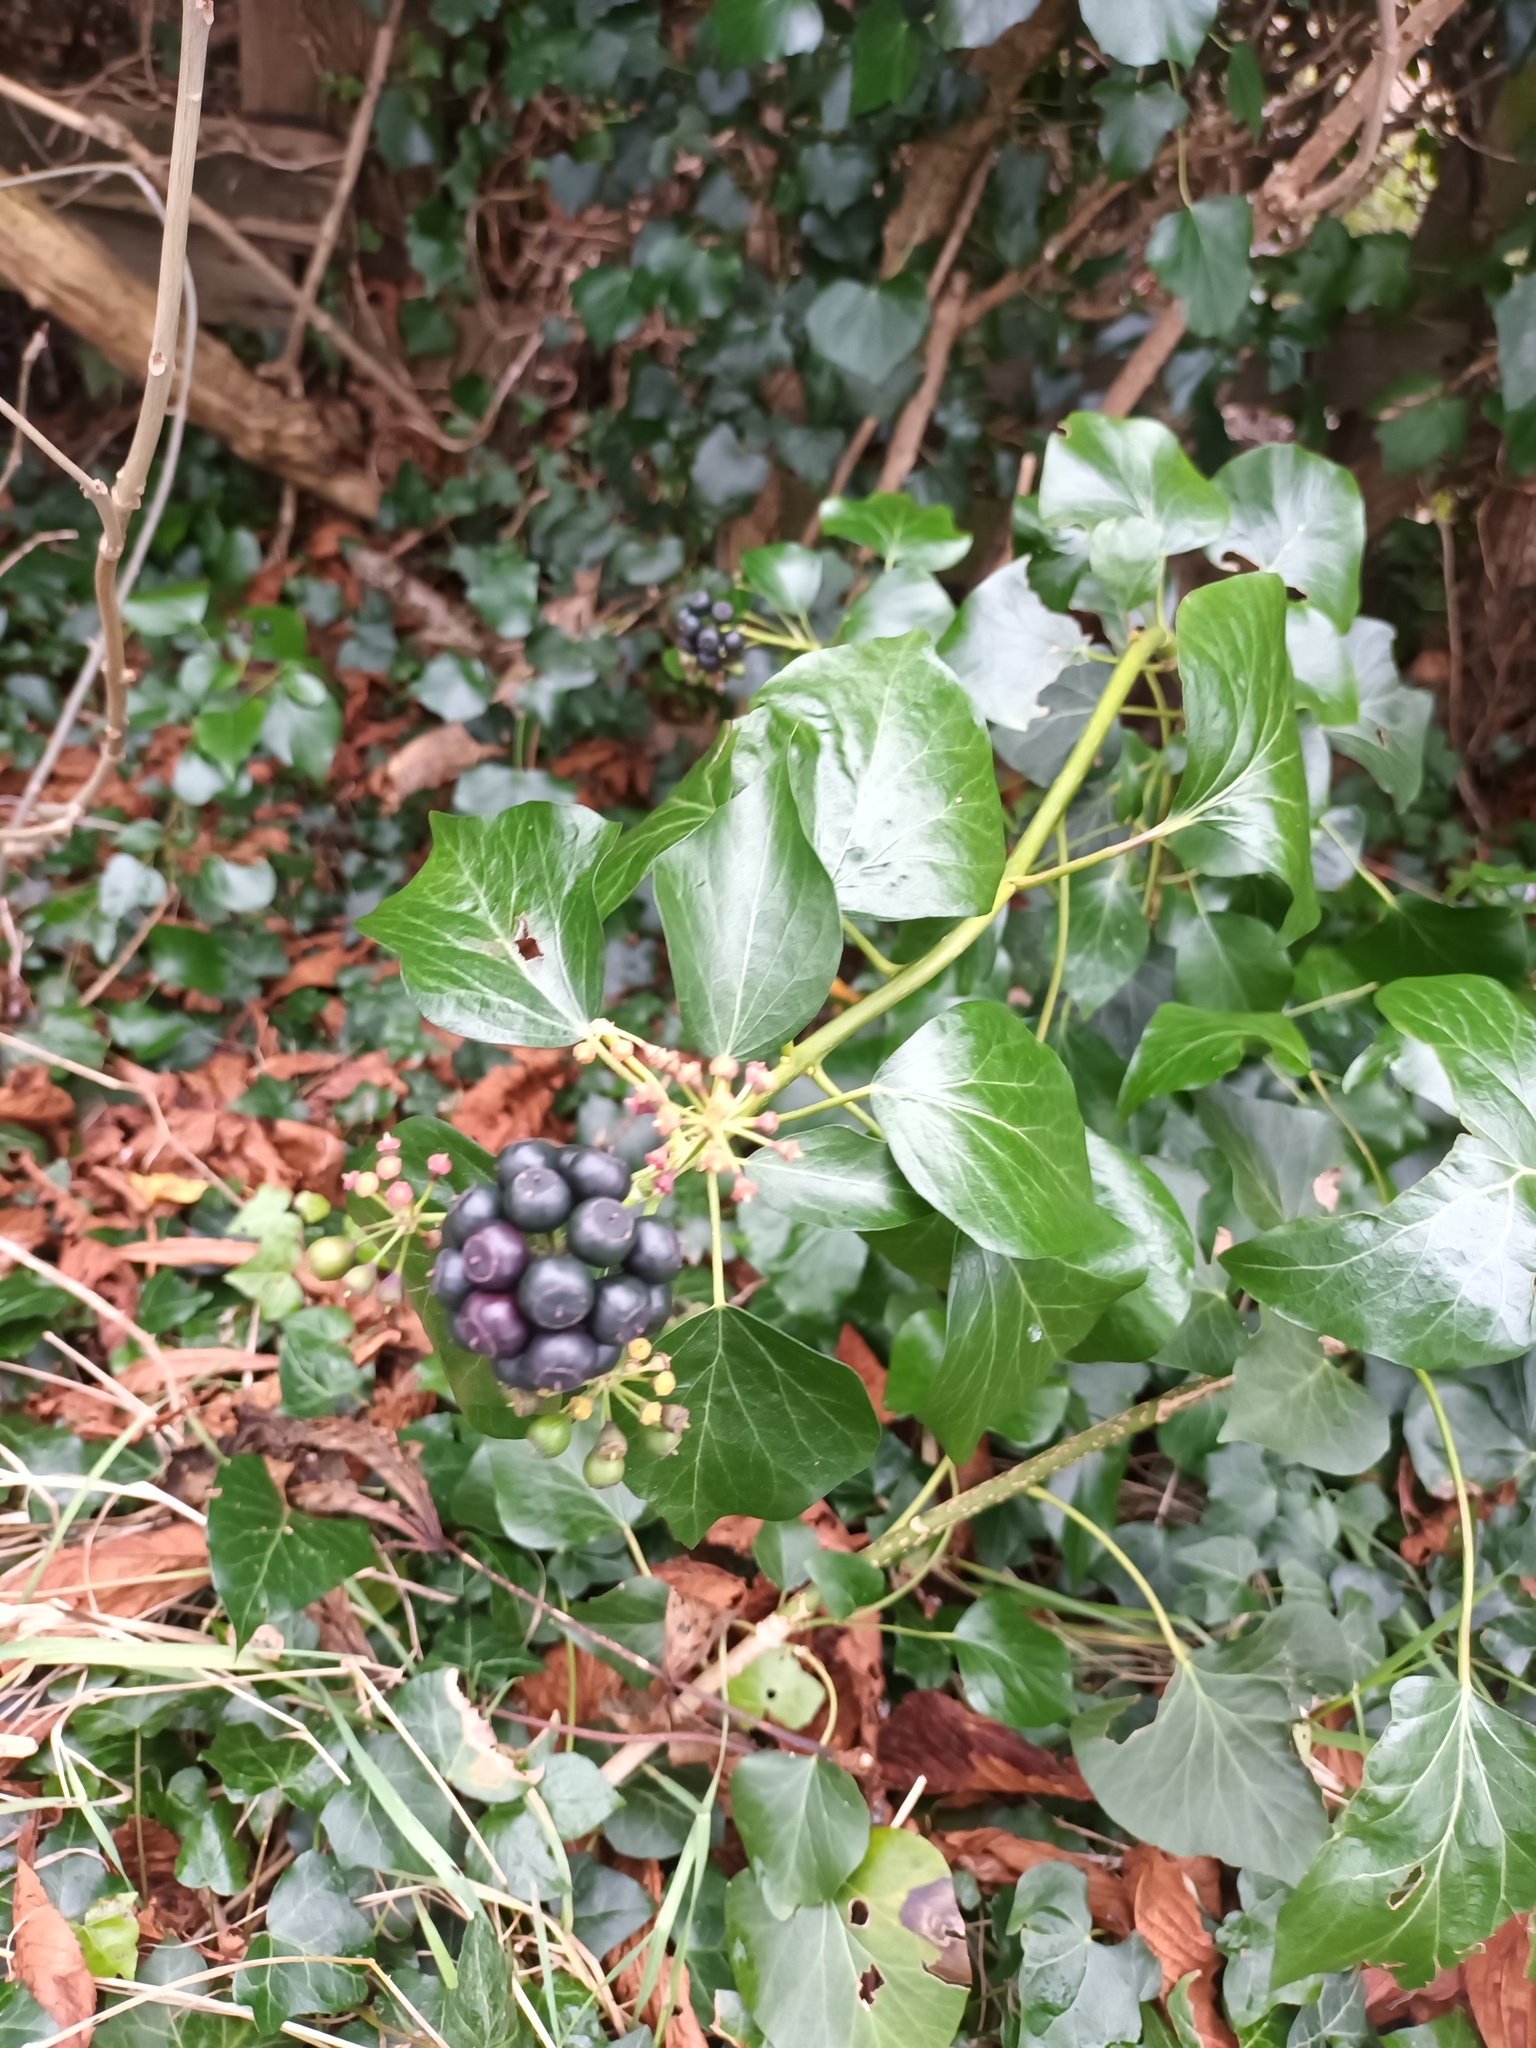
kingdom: Plantae
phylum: Tracheophyta
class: Magnoliopsida
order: Apiales
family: Araliaceae
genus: Hedera
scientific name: Hedera helix
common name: Ivy
